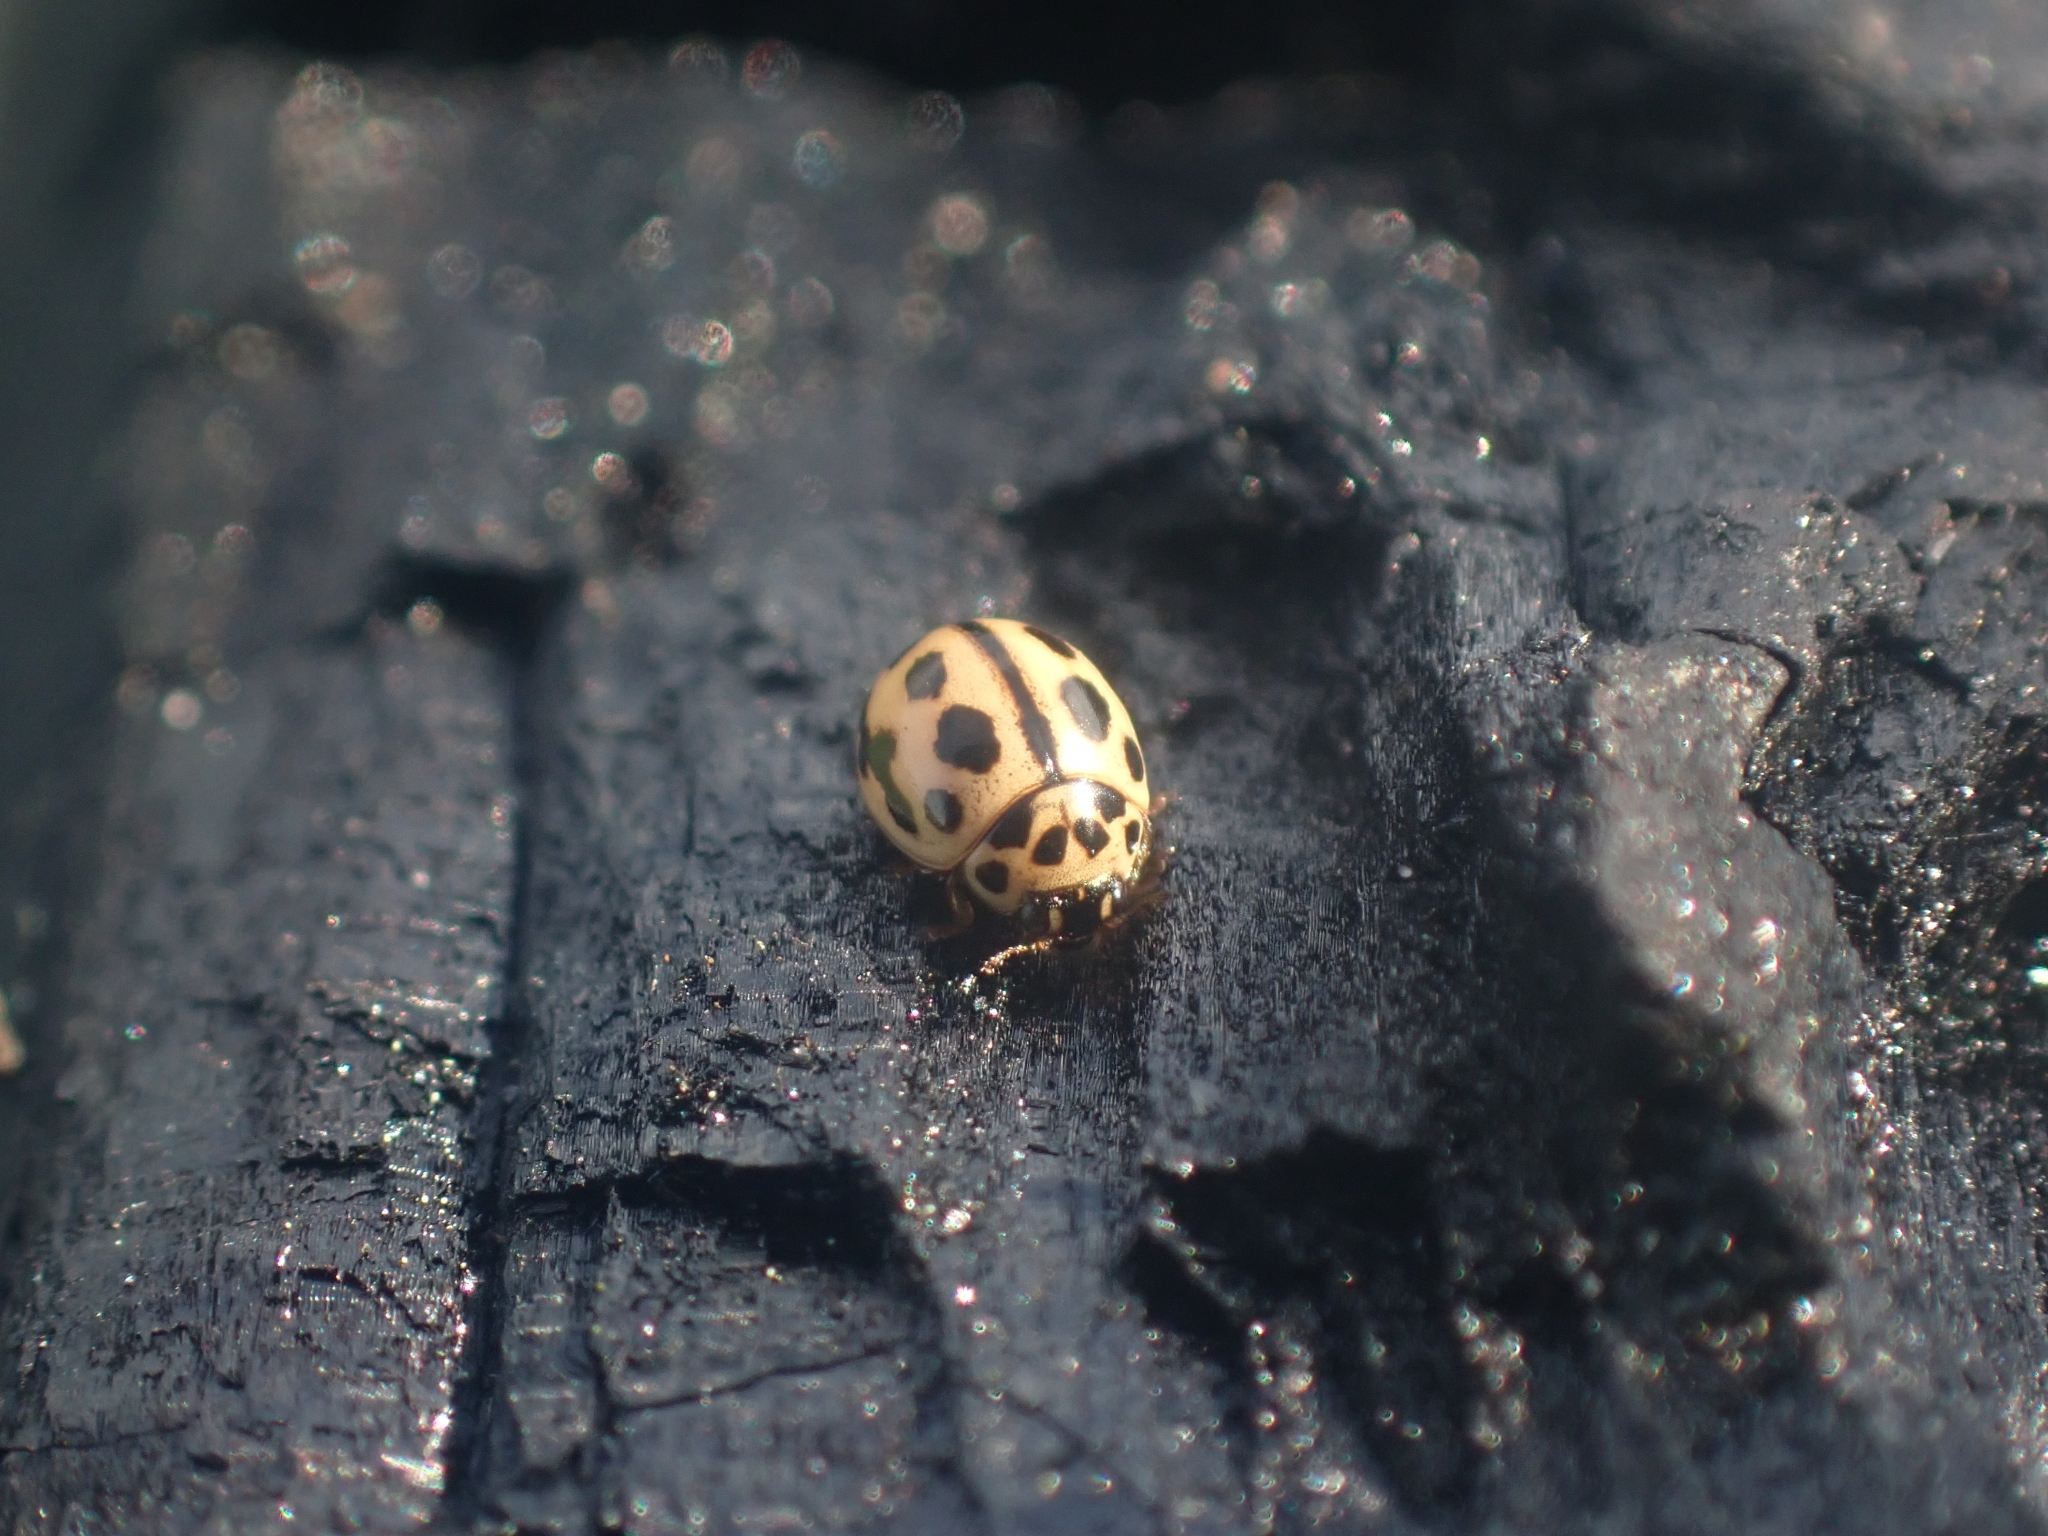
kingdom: Animalia
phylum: Arthropoda
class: Insecta
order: Coleoptera
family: Coccinellidae
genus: Tytthaspis
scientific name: Tytthaspis sedecimpunctata
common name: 16-spot ladybird
